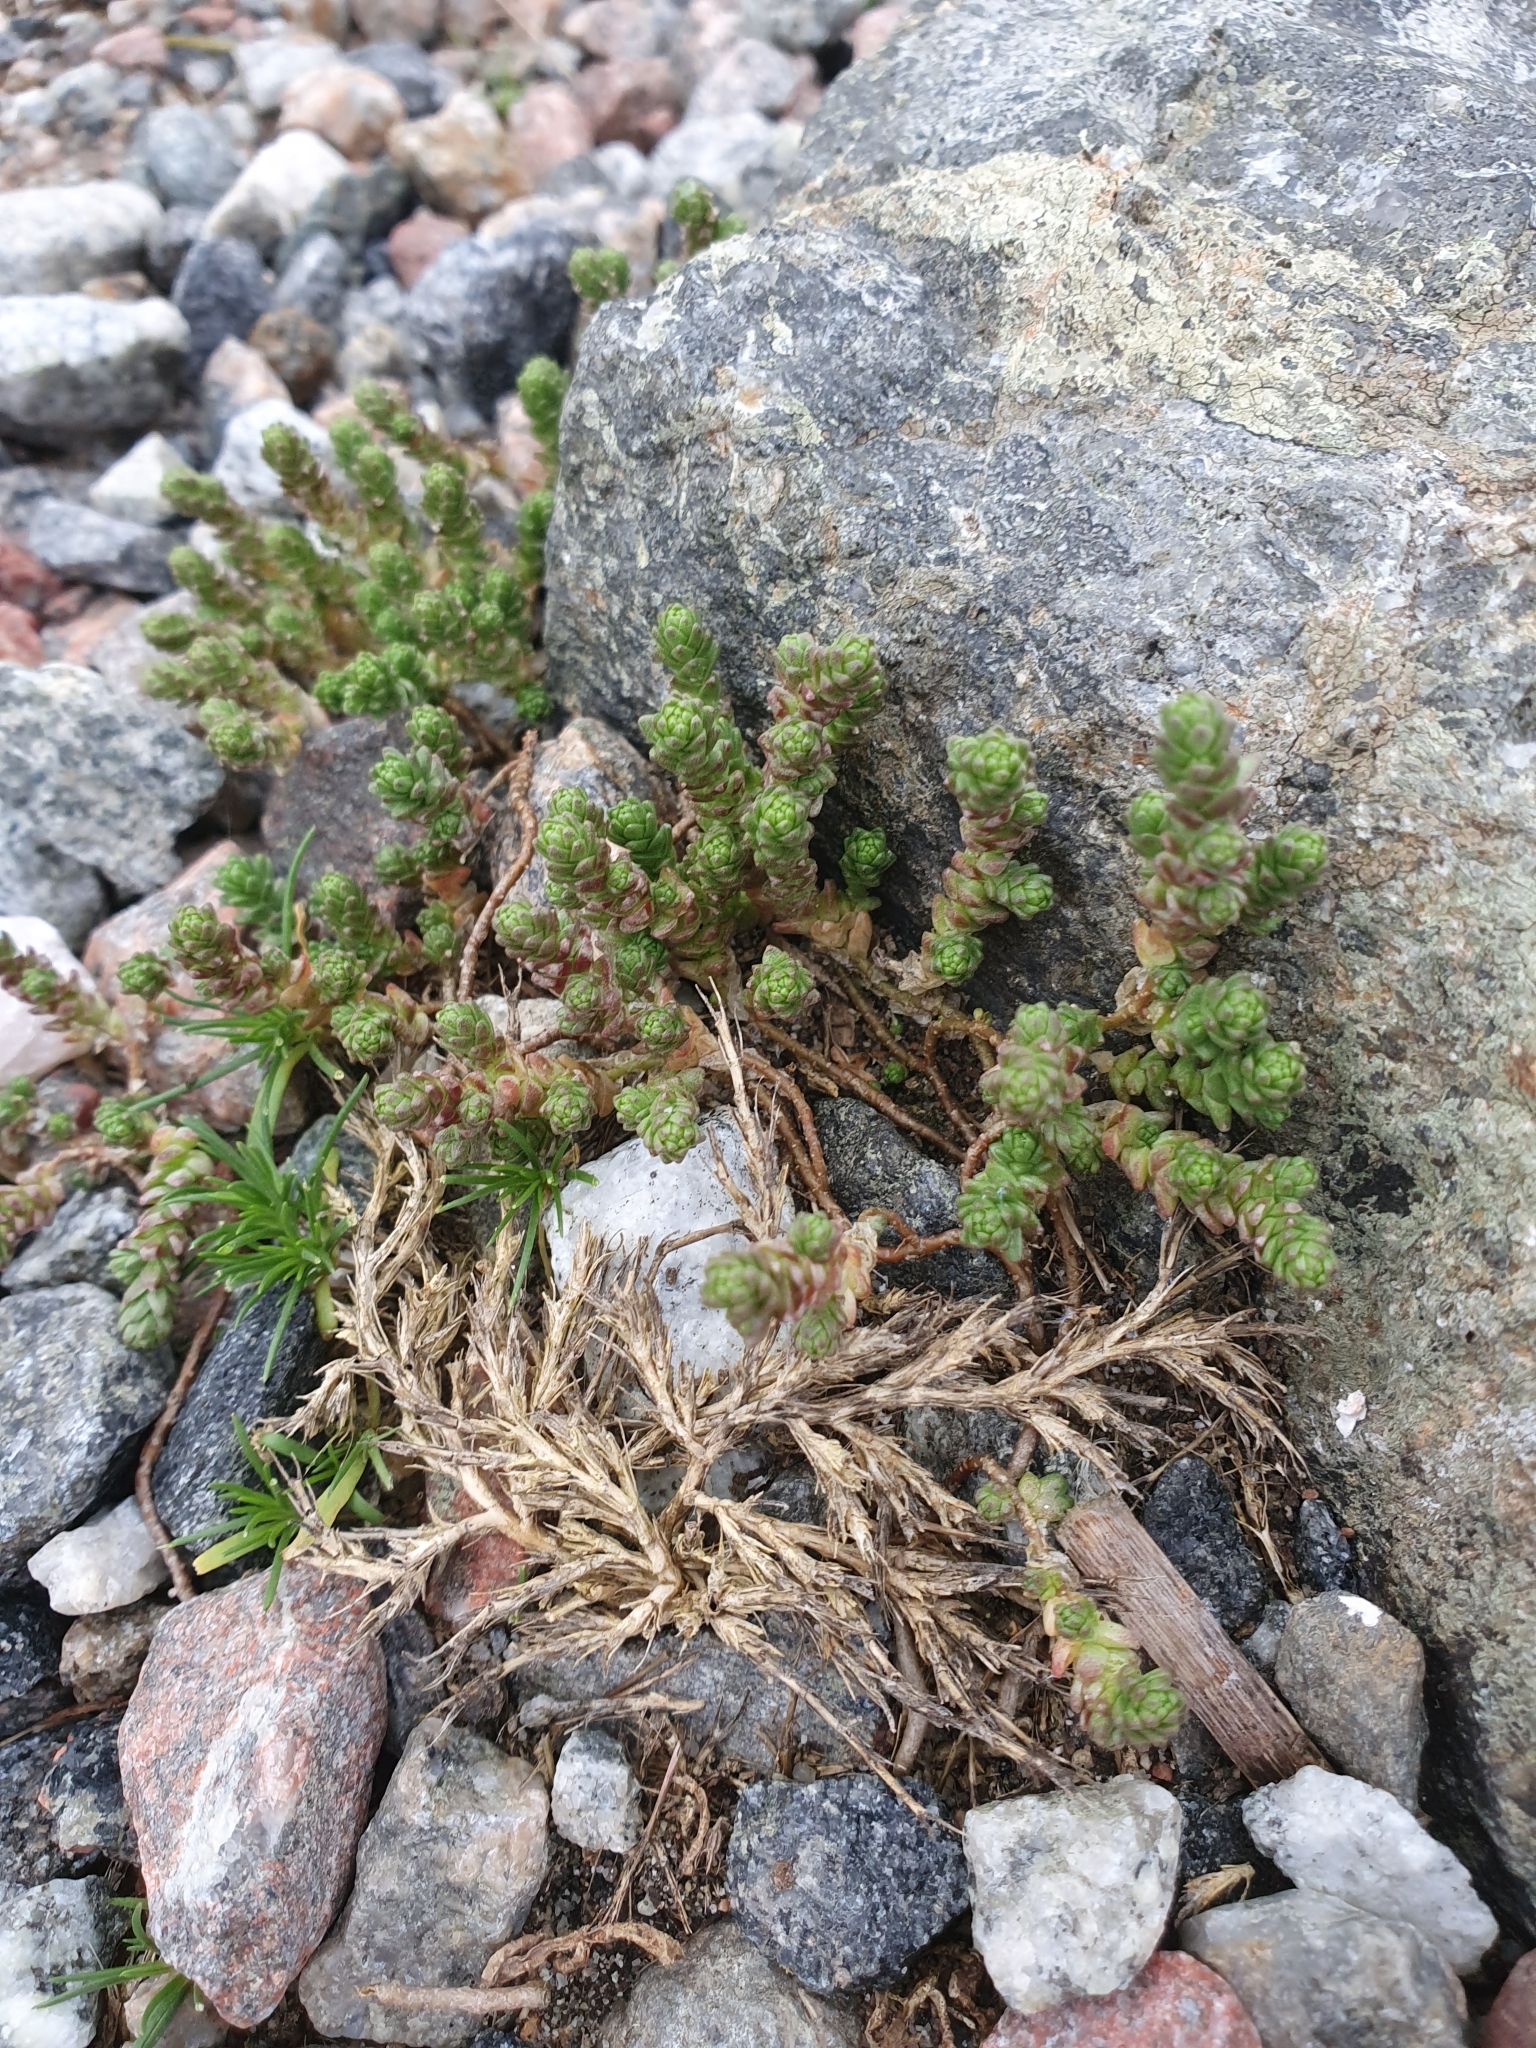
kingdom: Plantae
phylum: Tracheophyta
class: Magnoliopsida
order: Saxifragales
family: Crassulaceae
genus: Sedum
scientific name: Sedum acre
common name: Biting stonecrop
